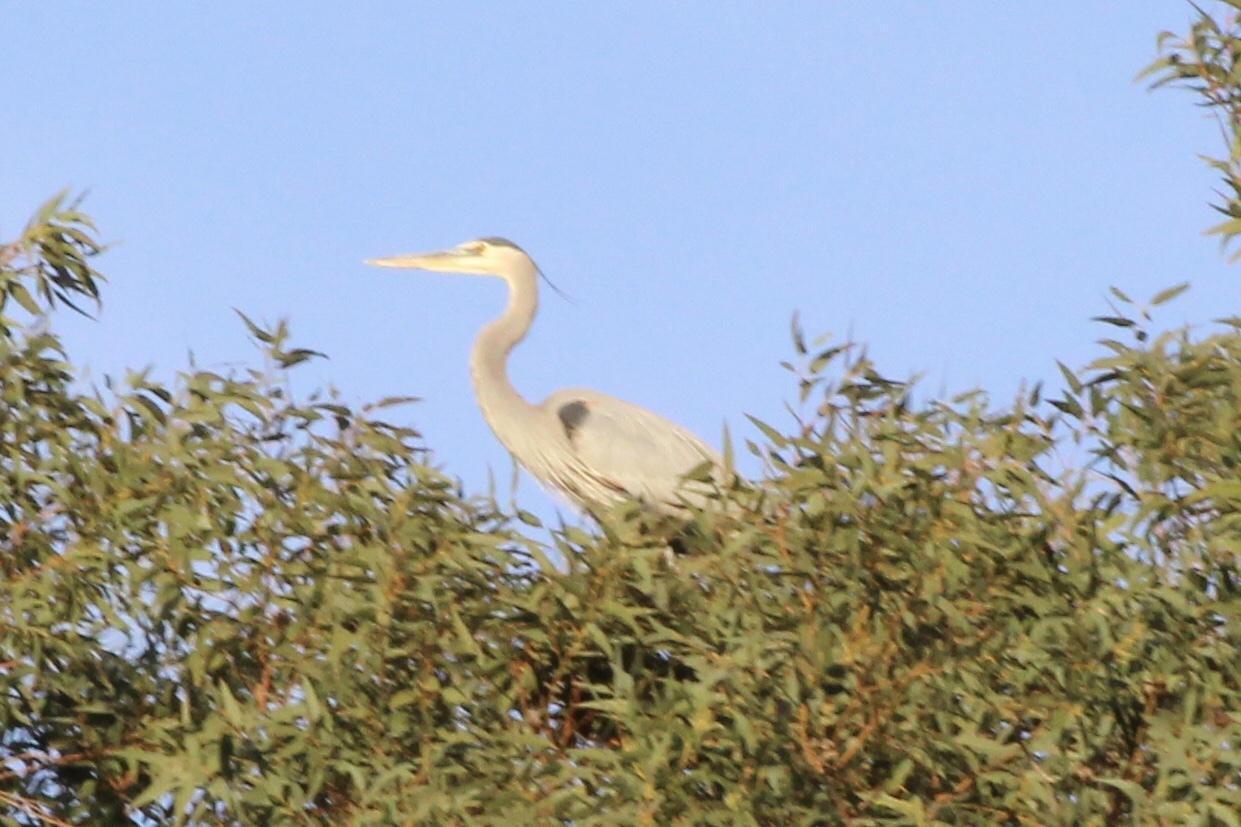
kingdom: Animalia
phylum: Chordata
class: Aves
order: Pelecaniformes
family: Ardeidae
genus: Ardea
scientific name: Ardea herodias
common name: Great blue heron
